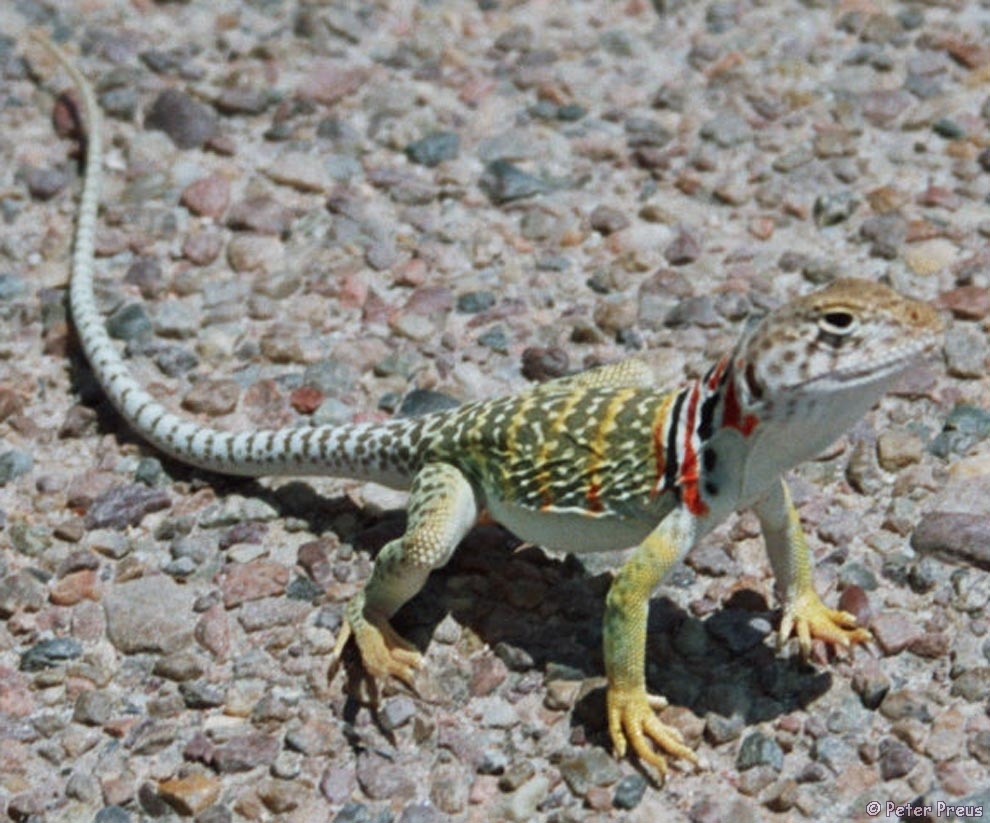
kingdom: Animalia
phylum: Chordata
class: Squamata
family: Crotaphytidae
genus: Crotaphytus
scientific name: Crotaphytus collaris
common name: Collared lizard
